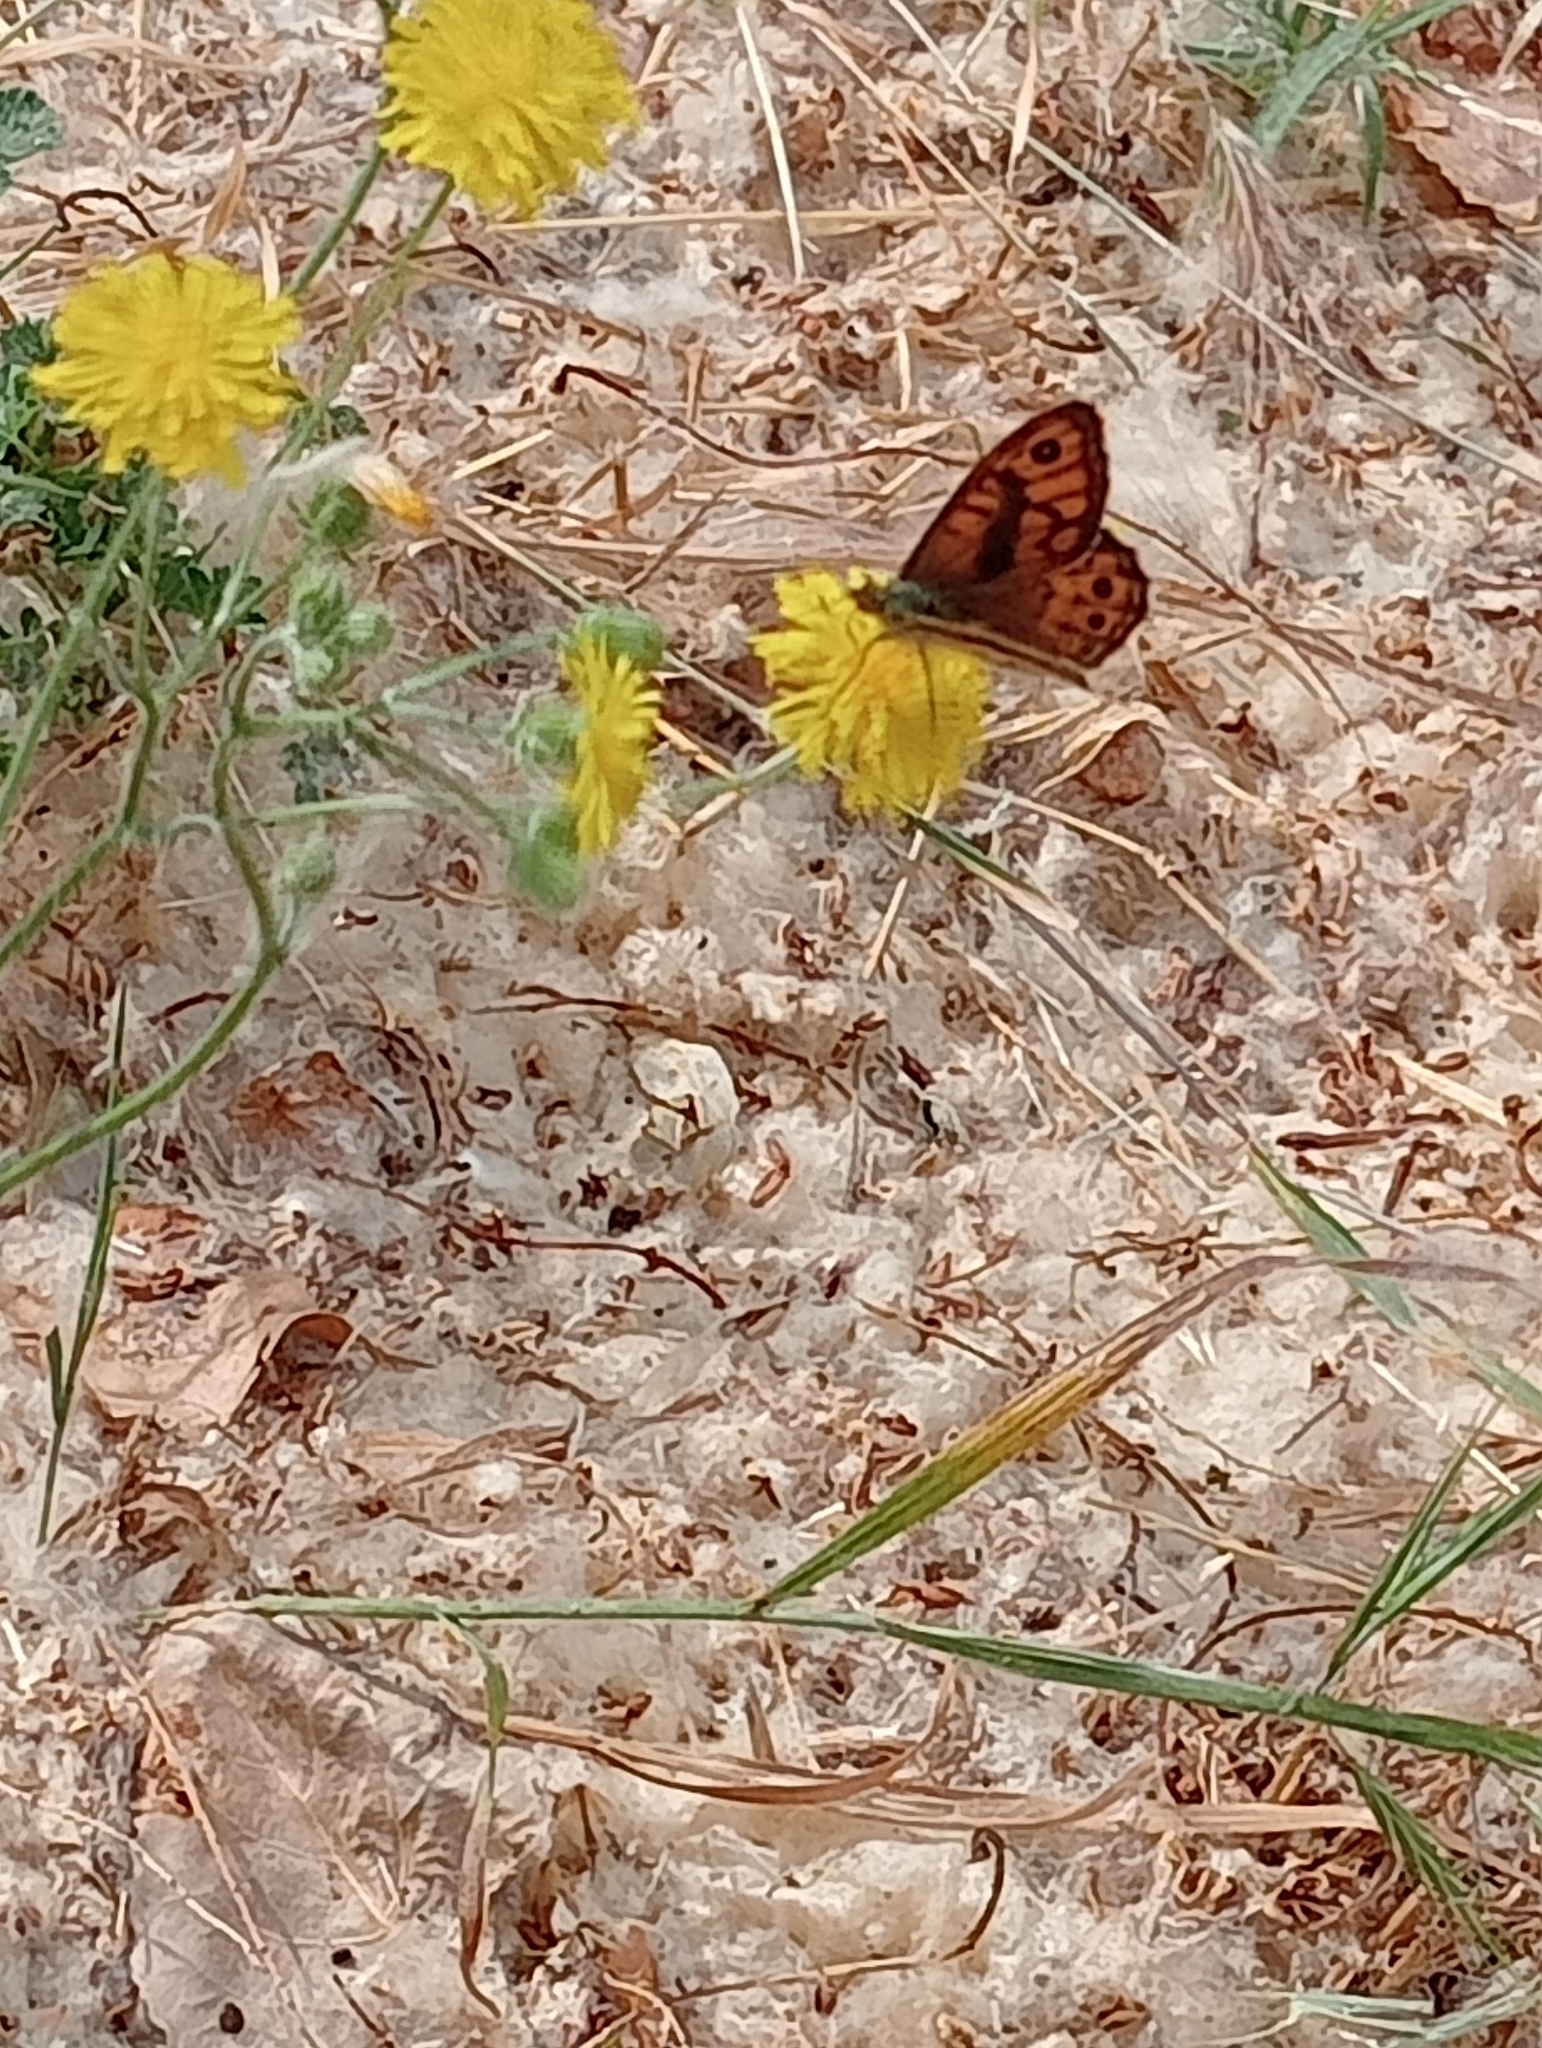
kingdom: Animalia
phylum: Arthropoda
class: Insecta
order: Lepidoptera
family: Nymphalidae
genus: Pararge
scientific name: Pararge Lasiommata megera
